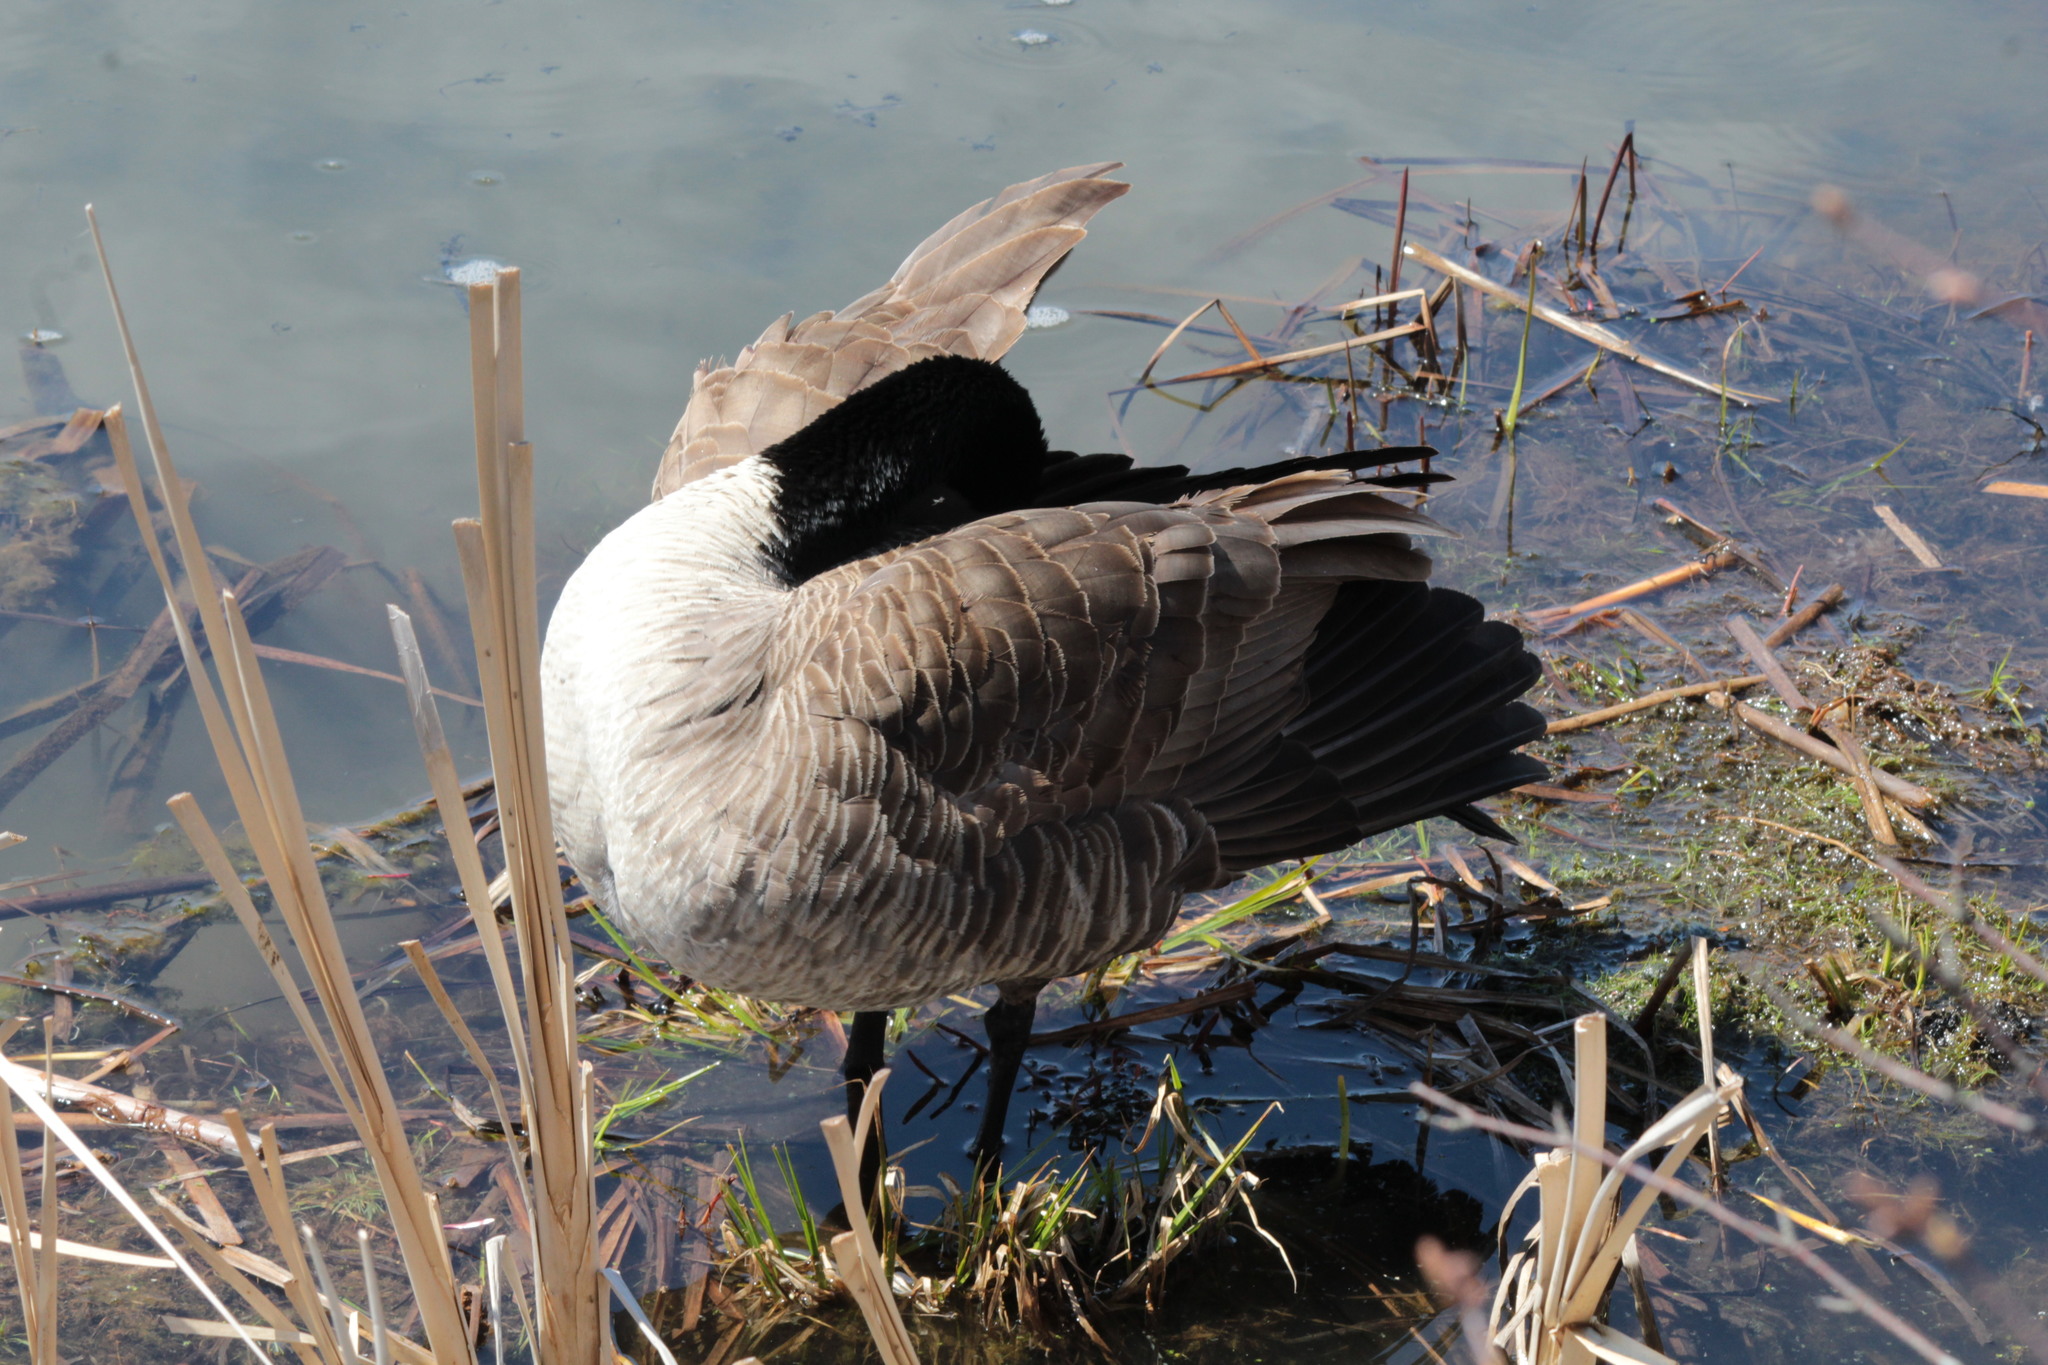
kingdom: Animalia
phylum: Chordata
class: Aves
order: Anseriformes
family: Anatidae
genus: Branta
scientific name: Branta canadensis
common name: Canada goose
